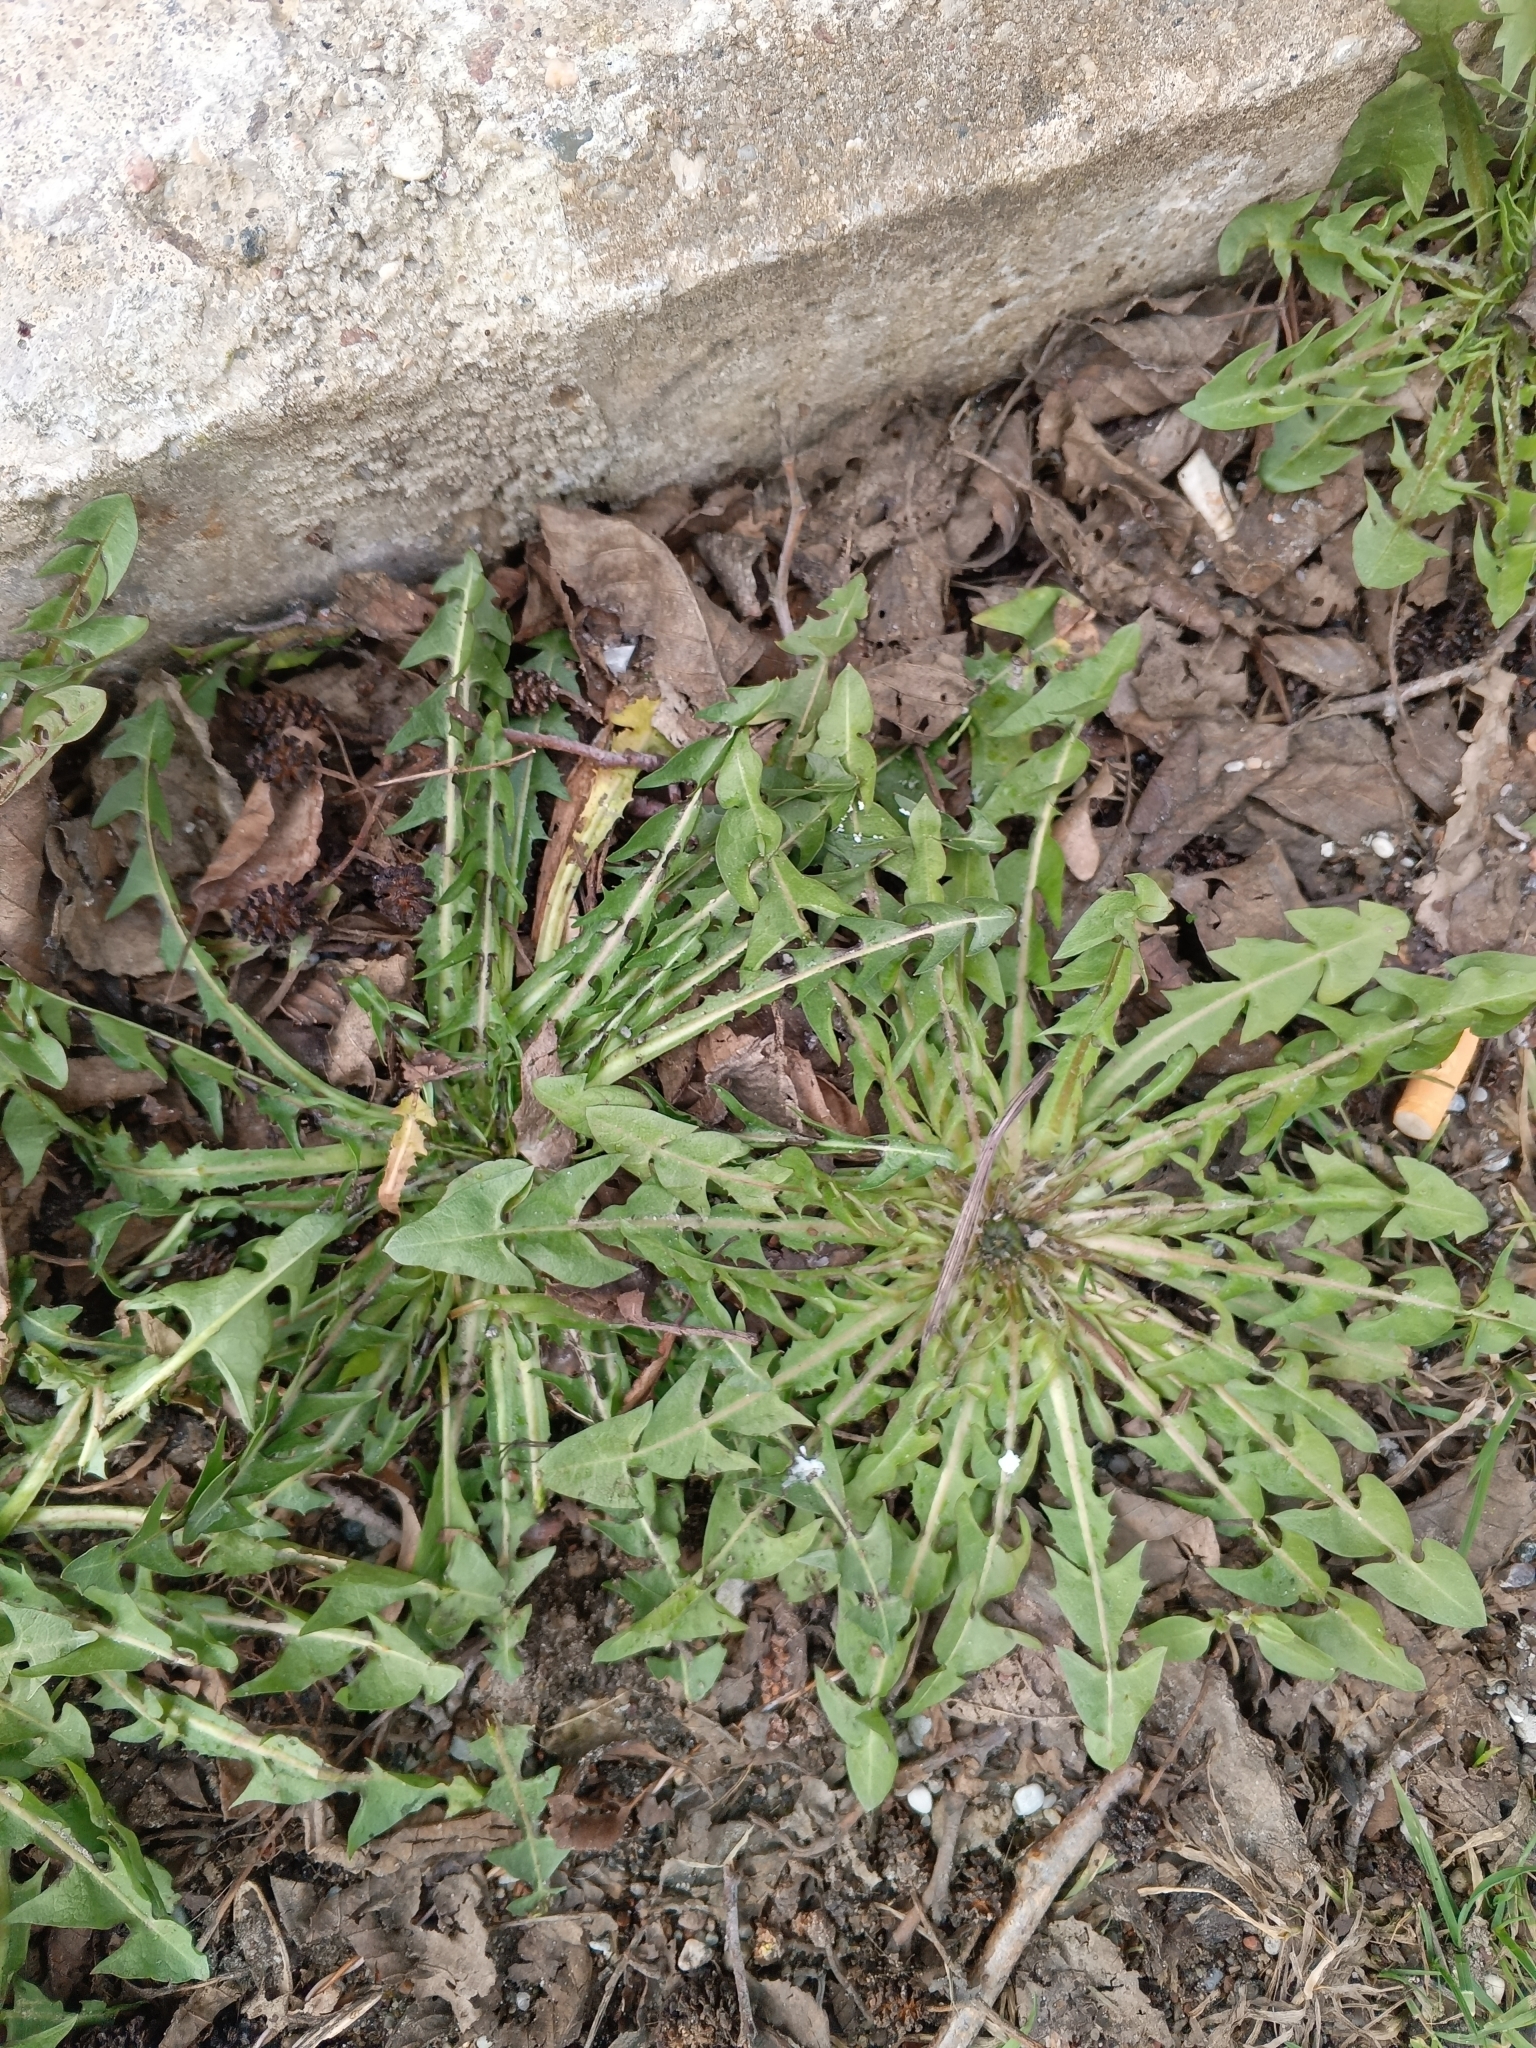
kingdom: Plantae
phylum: Tracheophyta
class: Magnoliopsida
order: Asterales
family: Asteraceae
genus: Taraxacum
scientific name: Taraxacum officinale
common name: Common dandelion
